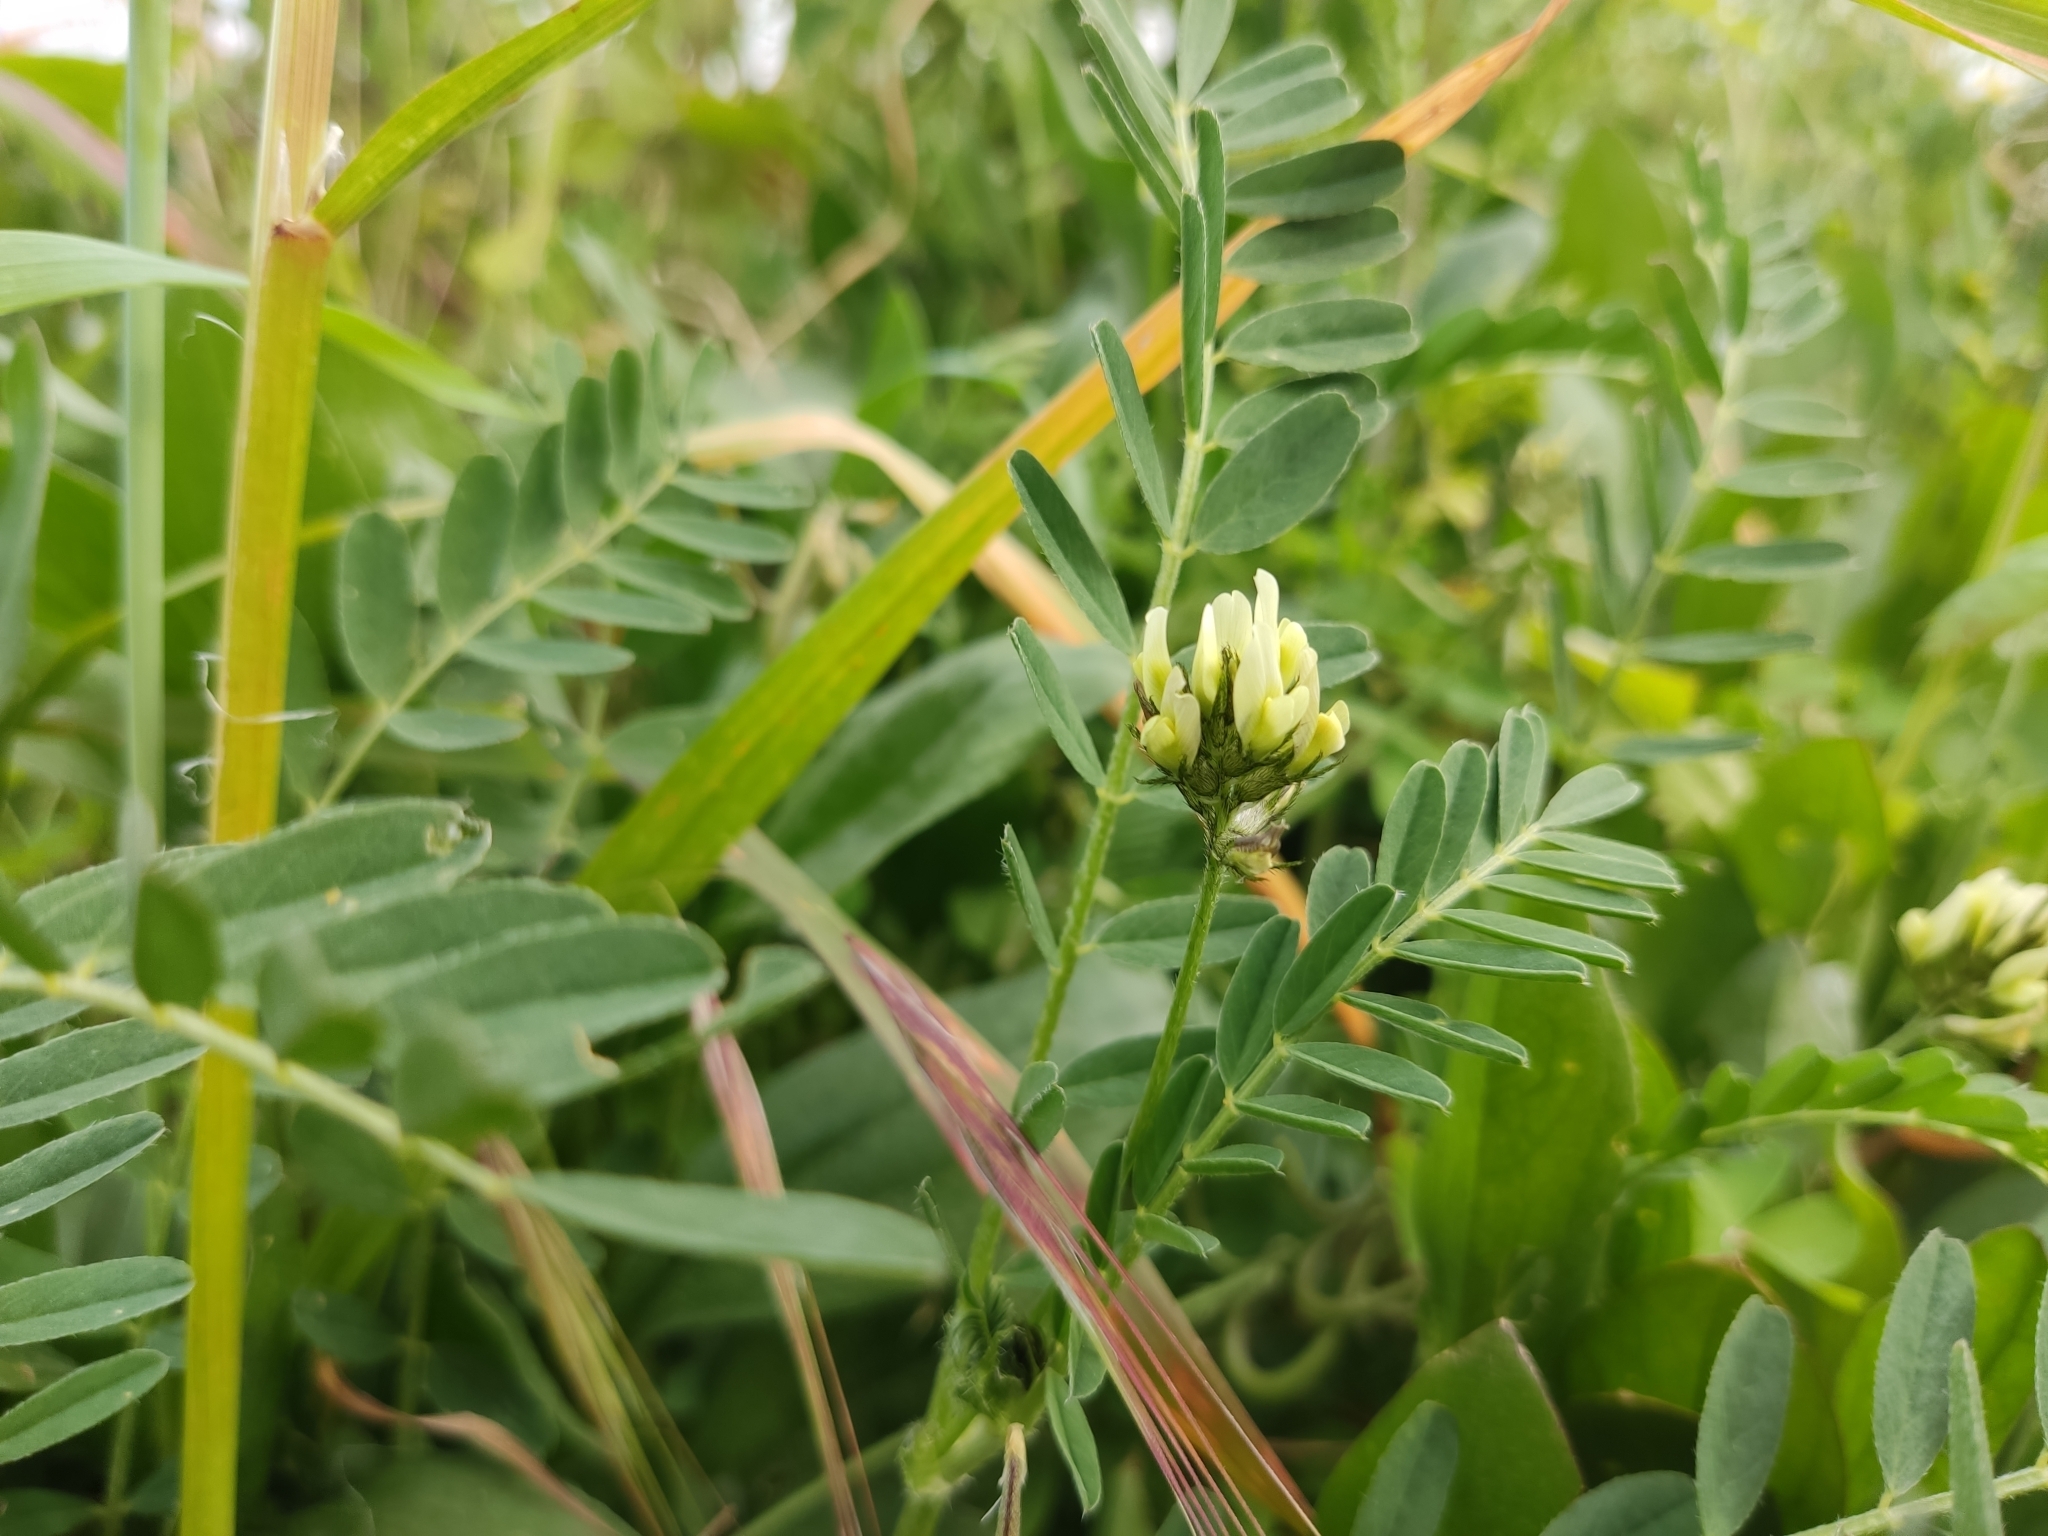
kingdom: Plantae
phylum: Tracheophyta
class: Magnoliopsida
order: Fabales
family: Fabaceae
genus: Astragalus
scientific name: Astragalus hamosus
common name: European milkvetch
